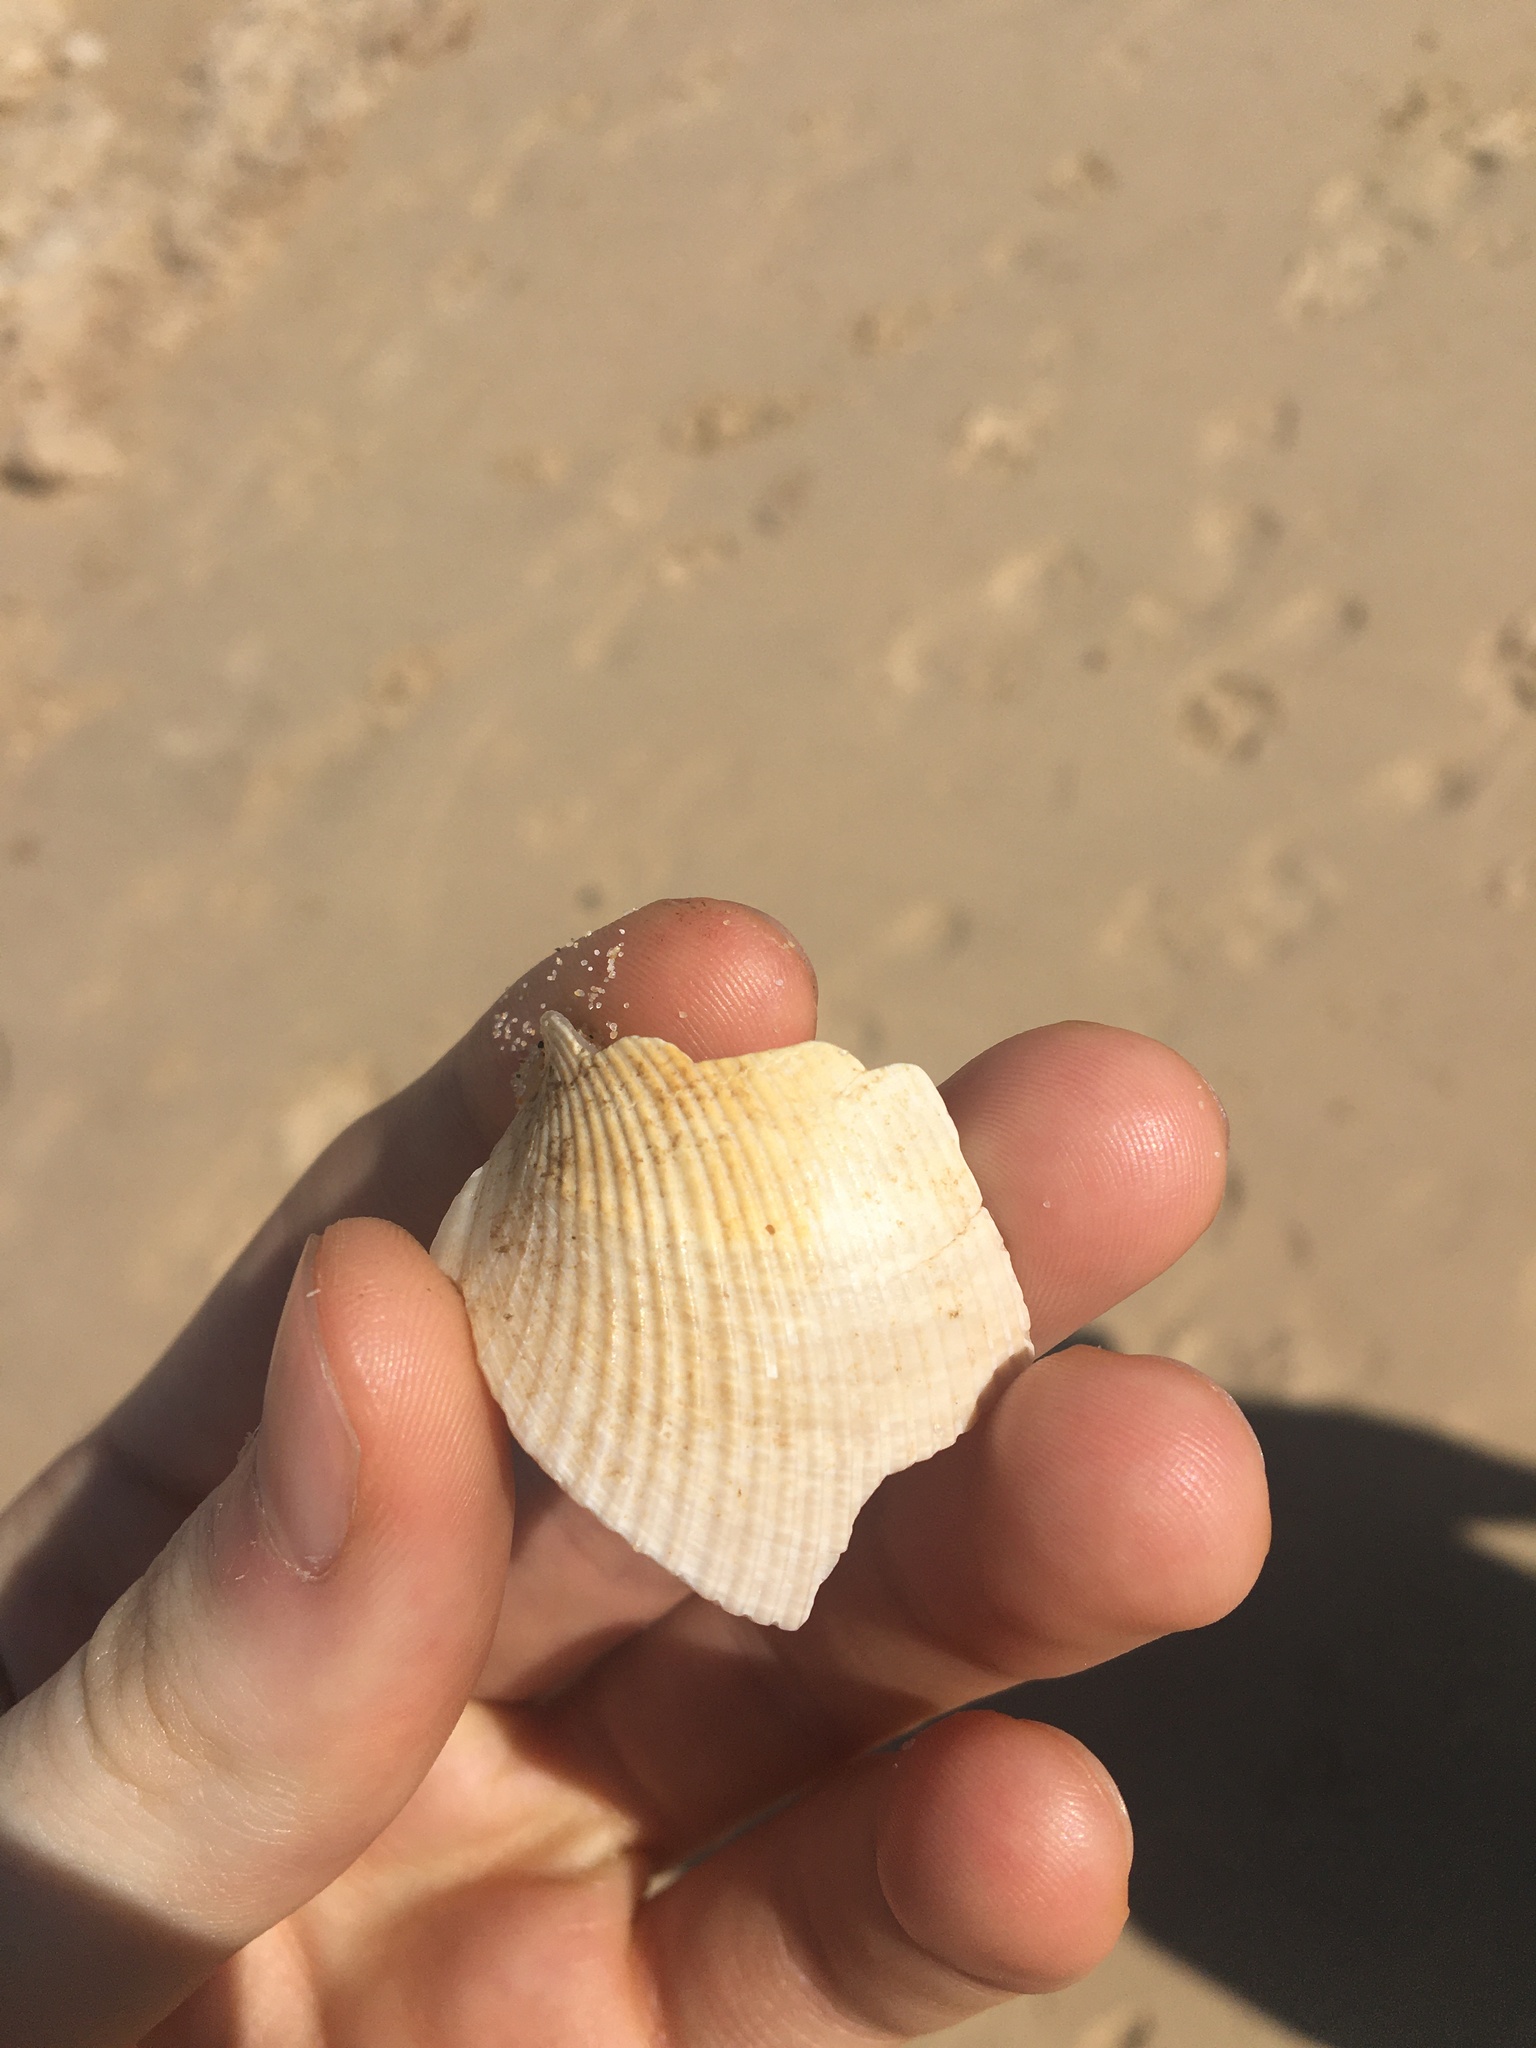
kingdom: Animalia
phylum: Mollusca
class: Bivalvia
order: Cardiida
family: Cardiidae
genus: Vepricardium
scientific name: Vepricardium multispinosum
